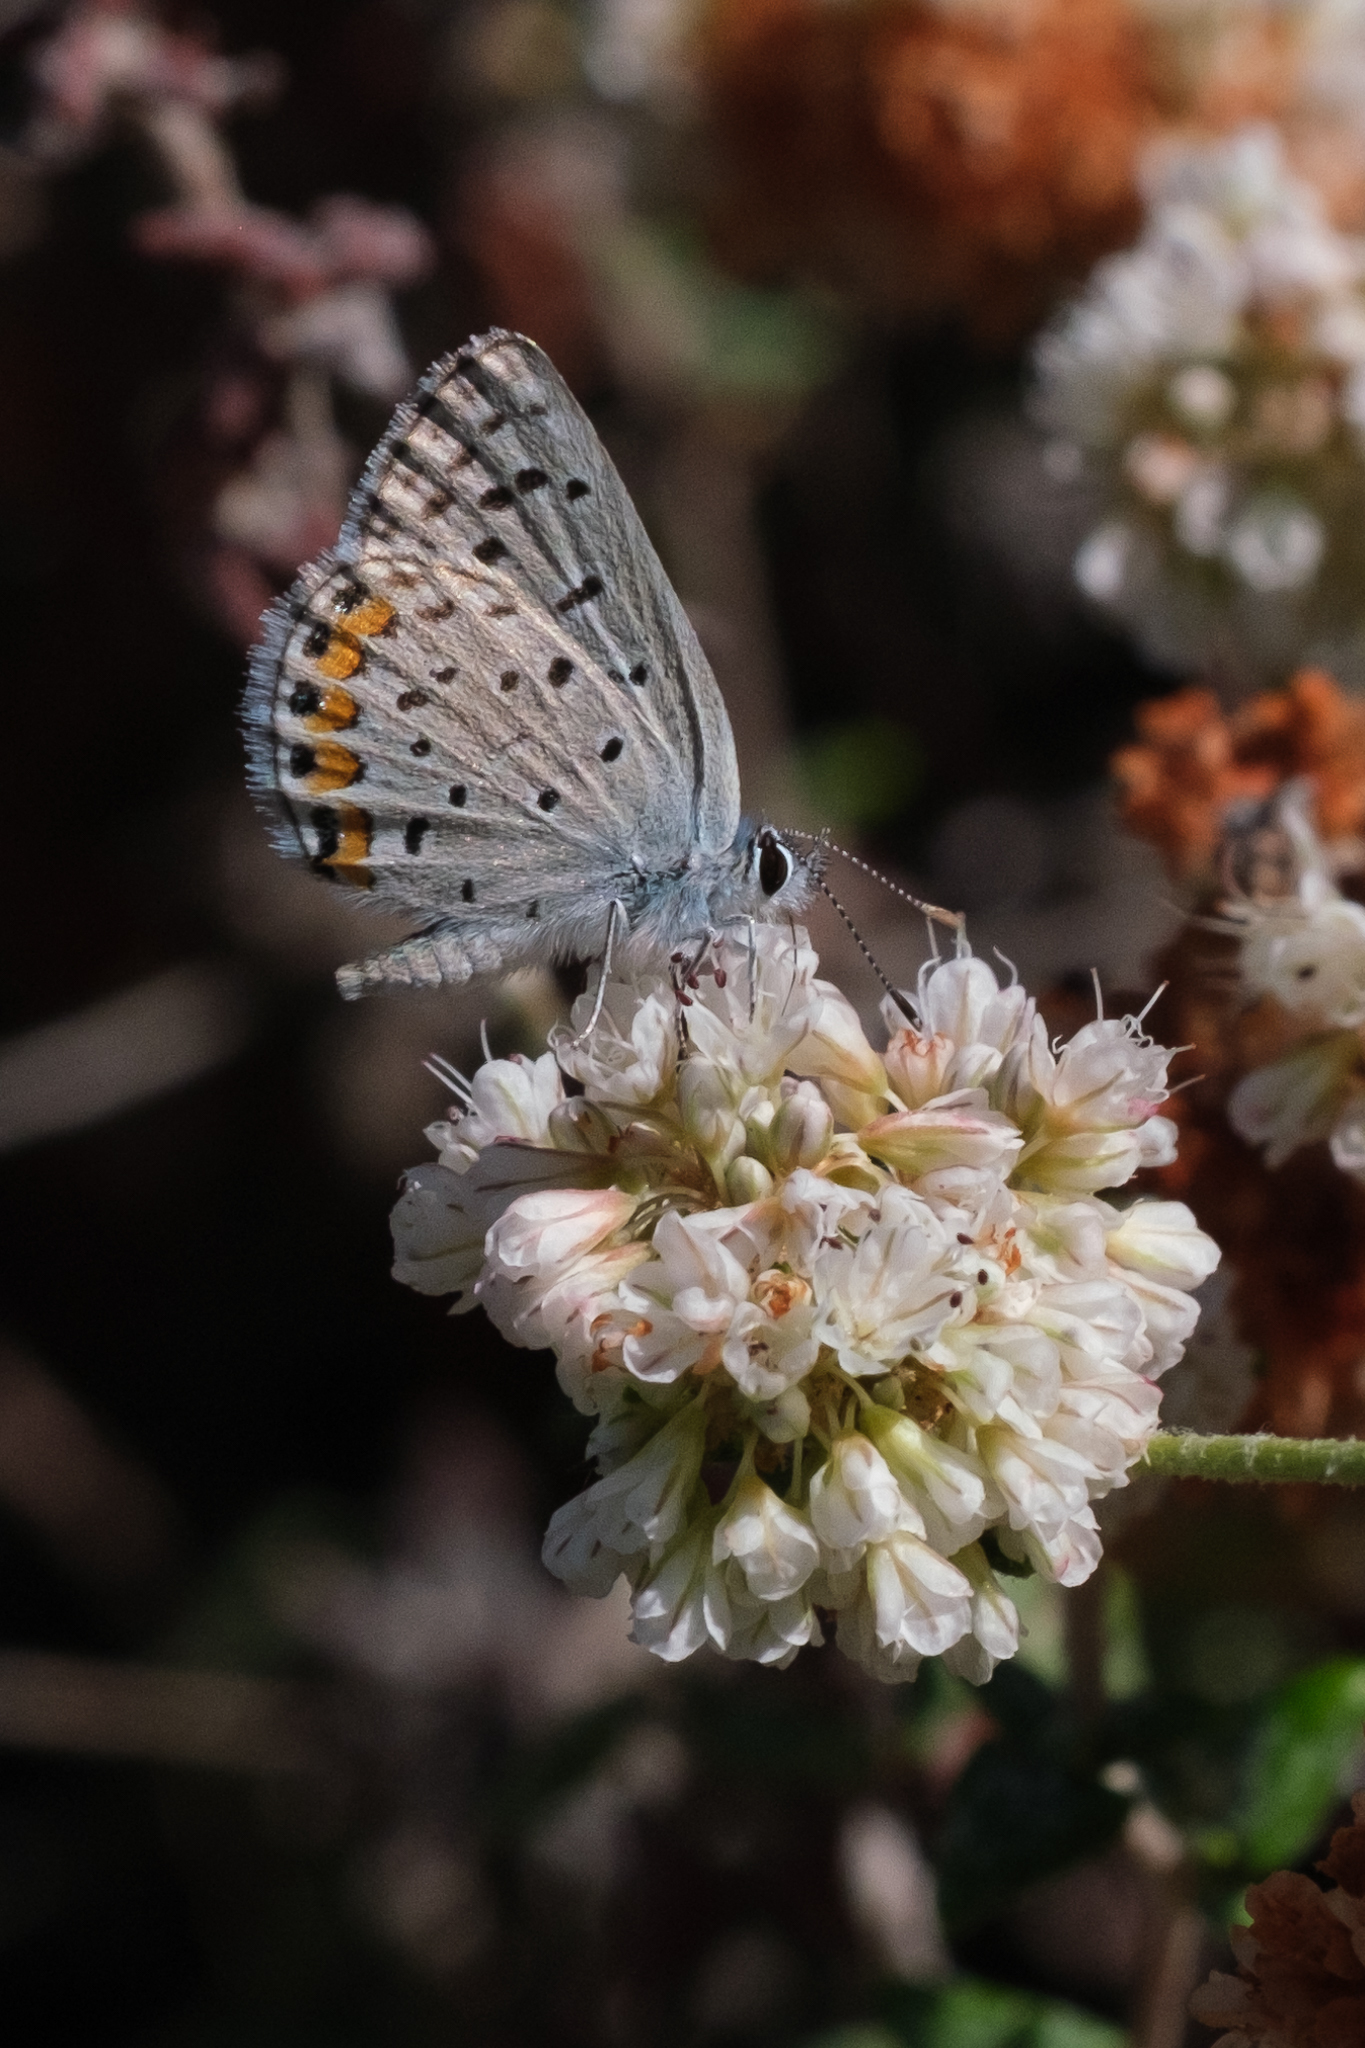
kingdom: Animalia
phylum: Arthropoda
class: Insecta
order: Lepidoptera
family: Lycaenidae
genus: Icaricia
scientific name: Icaricia acmon
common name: Acmon blue
